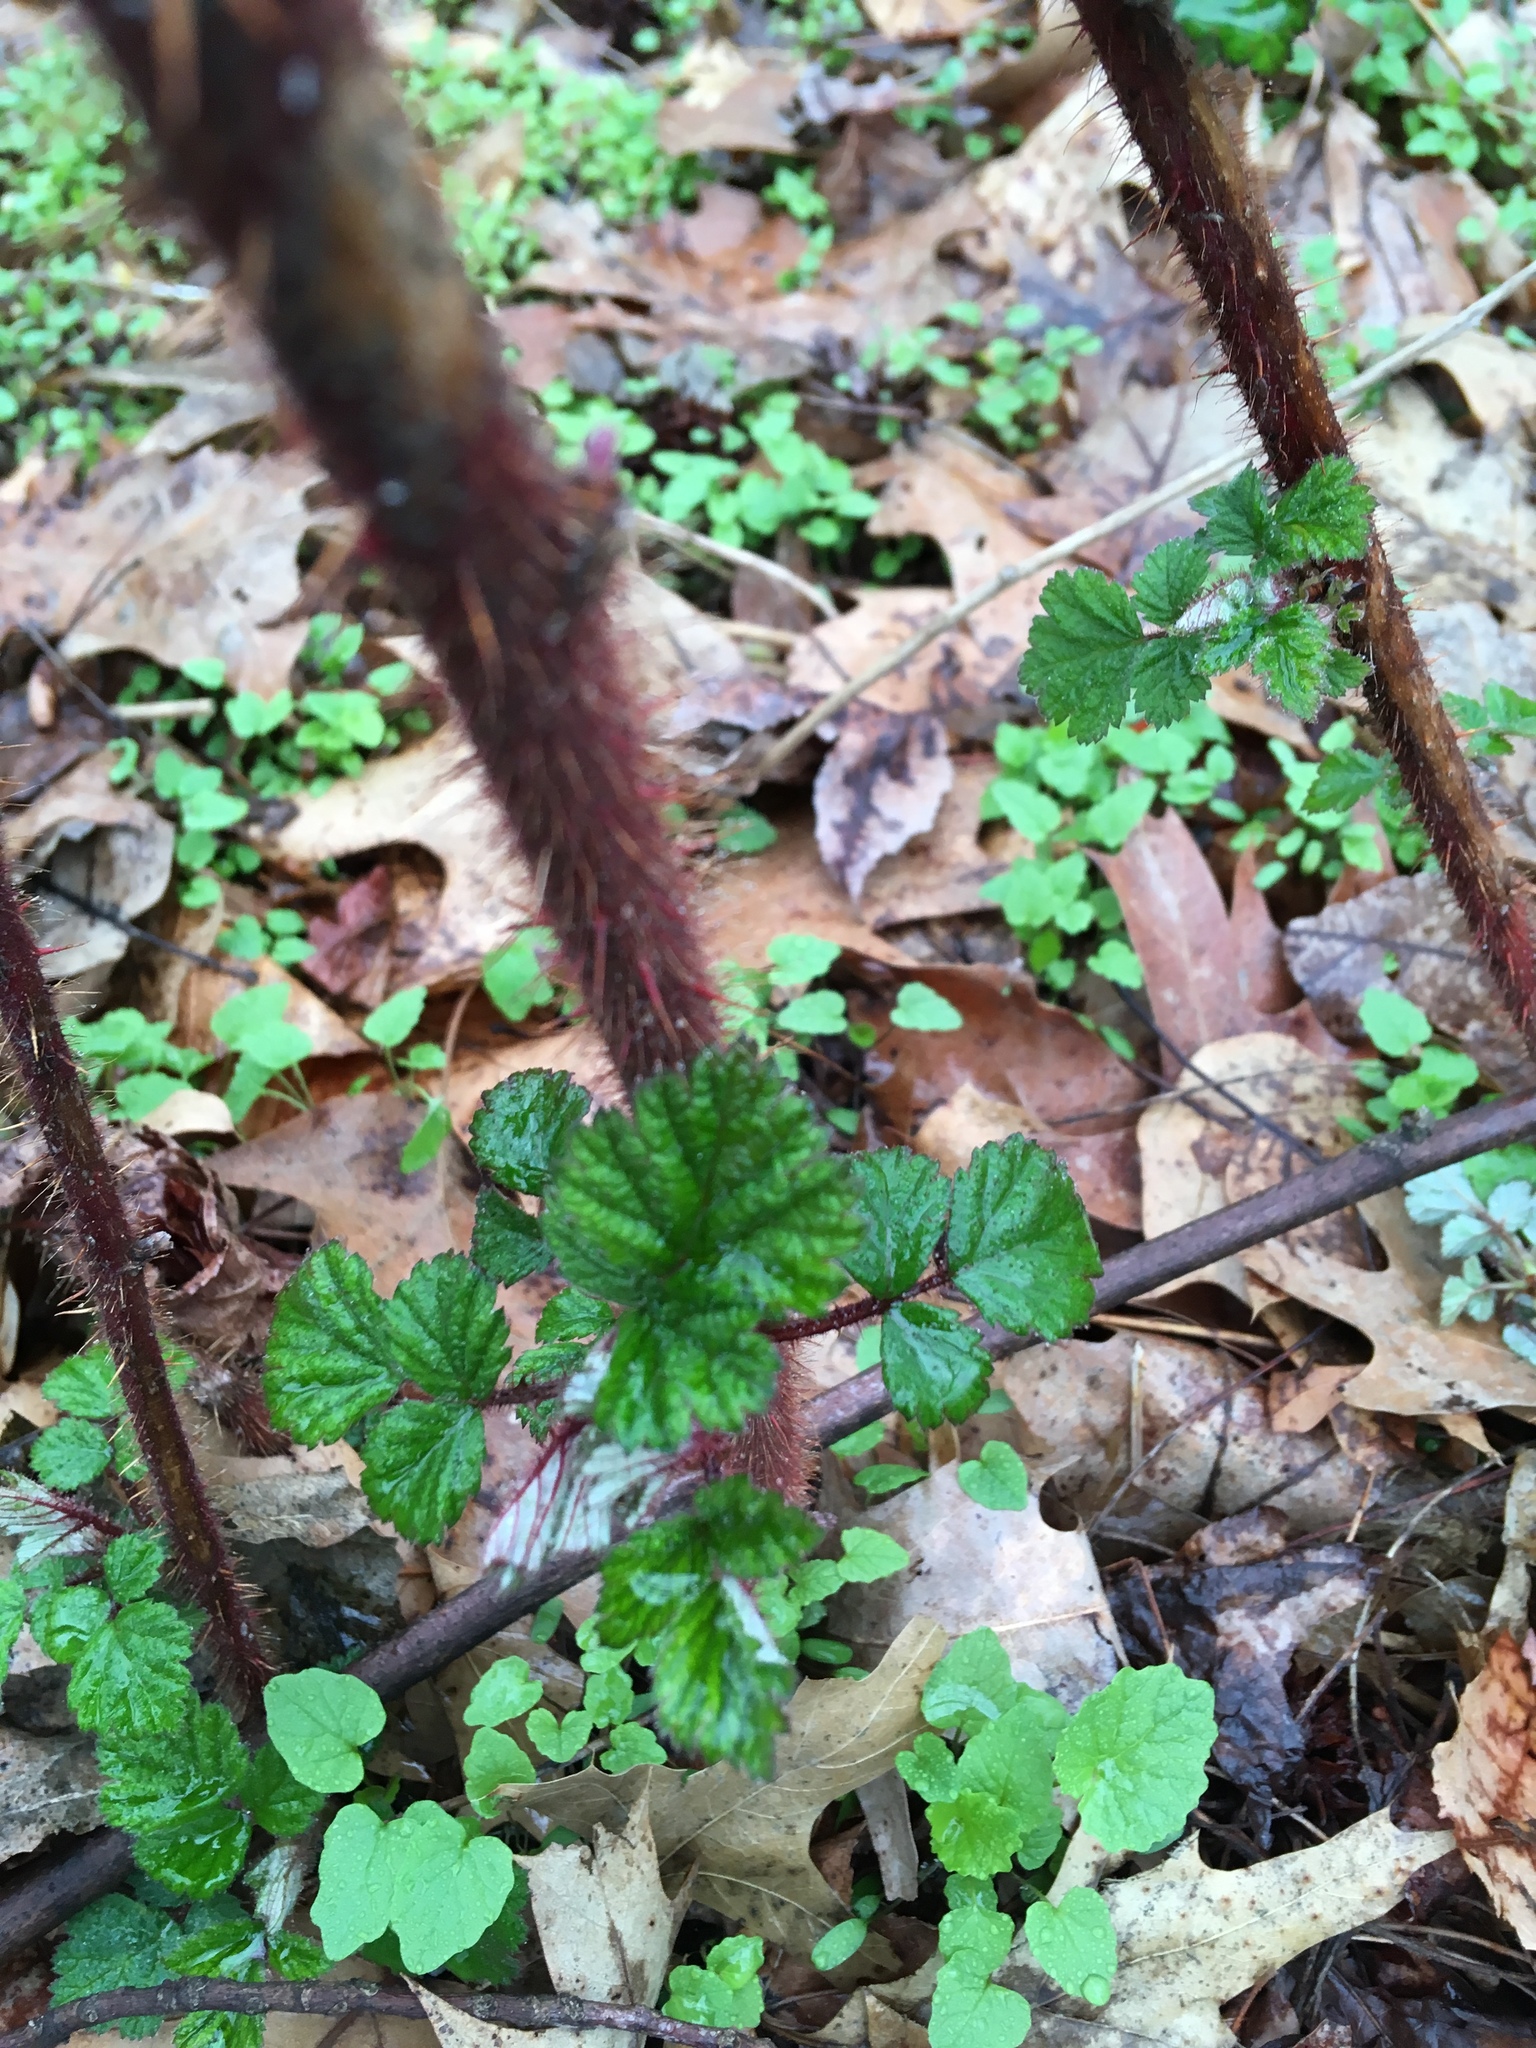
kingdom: Plantae
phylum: Tracheophyta
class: Magnoliopsida
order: Rosales
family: Rosaceae
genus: Rubus
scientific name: Rubus phoenicolasius
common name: Japanese wineberry
